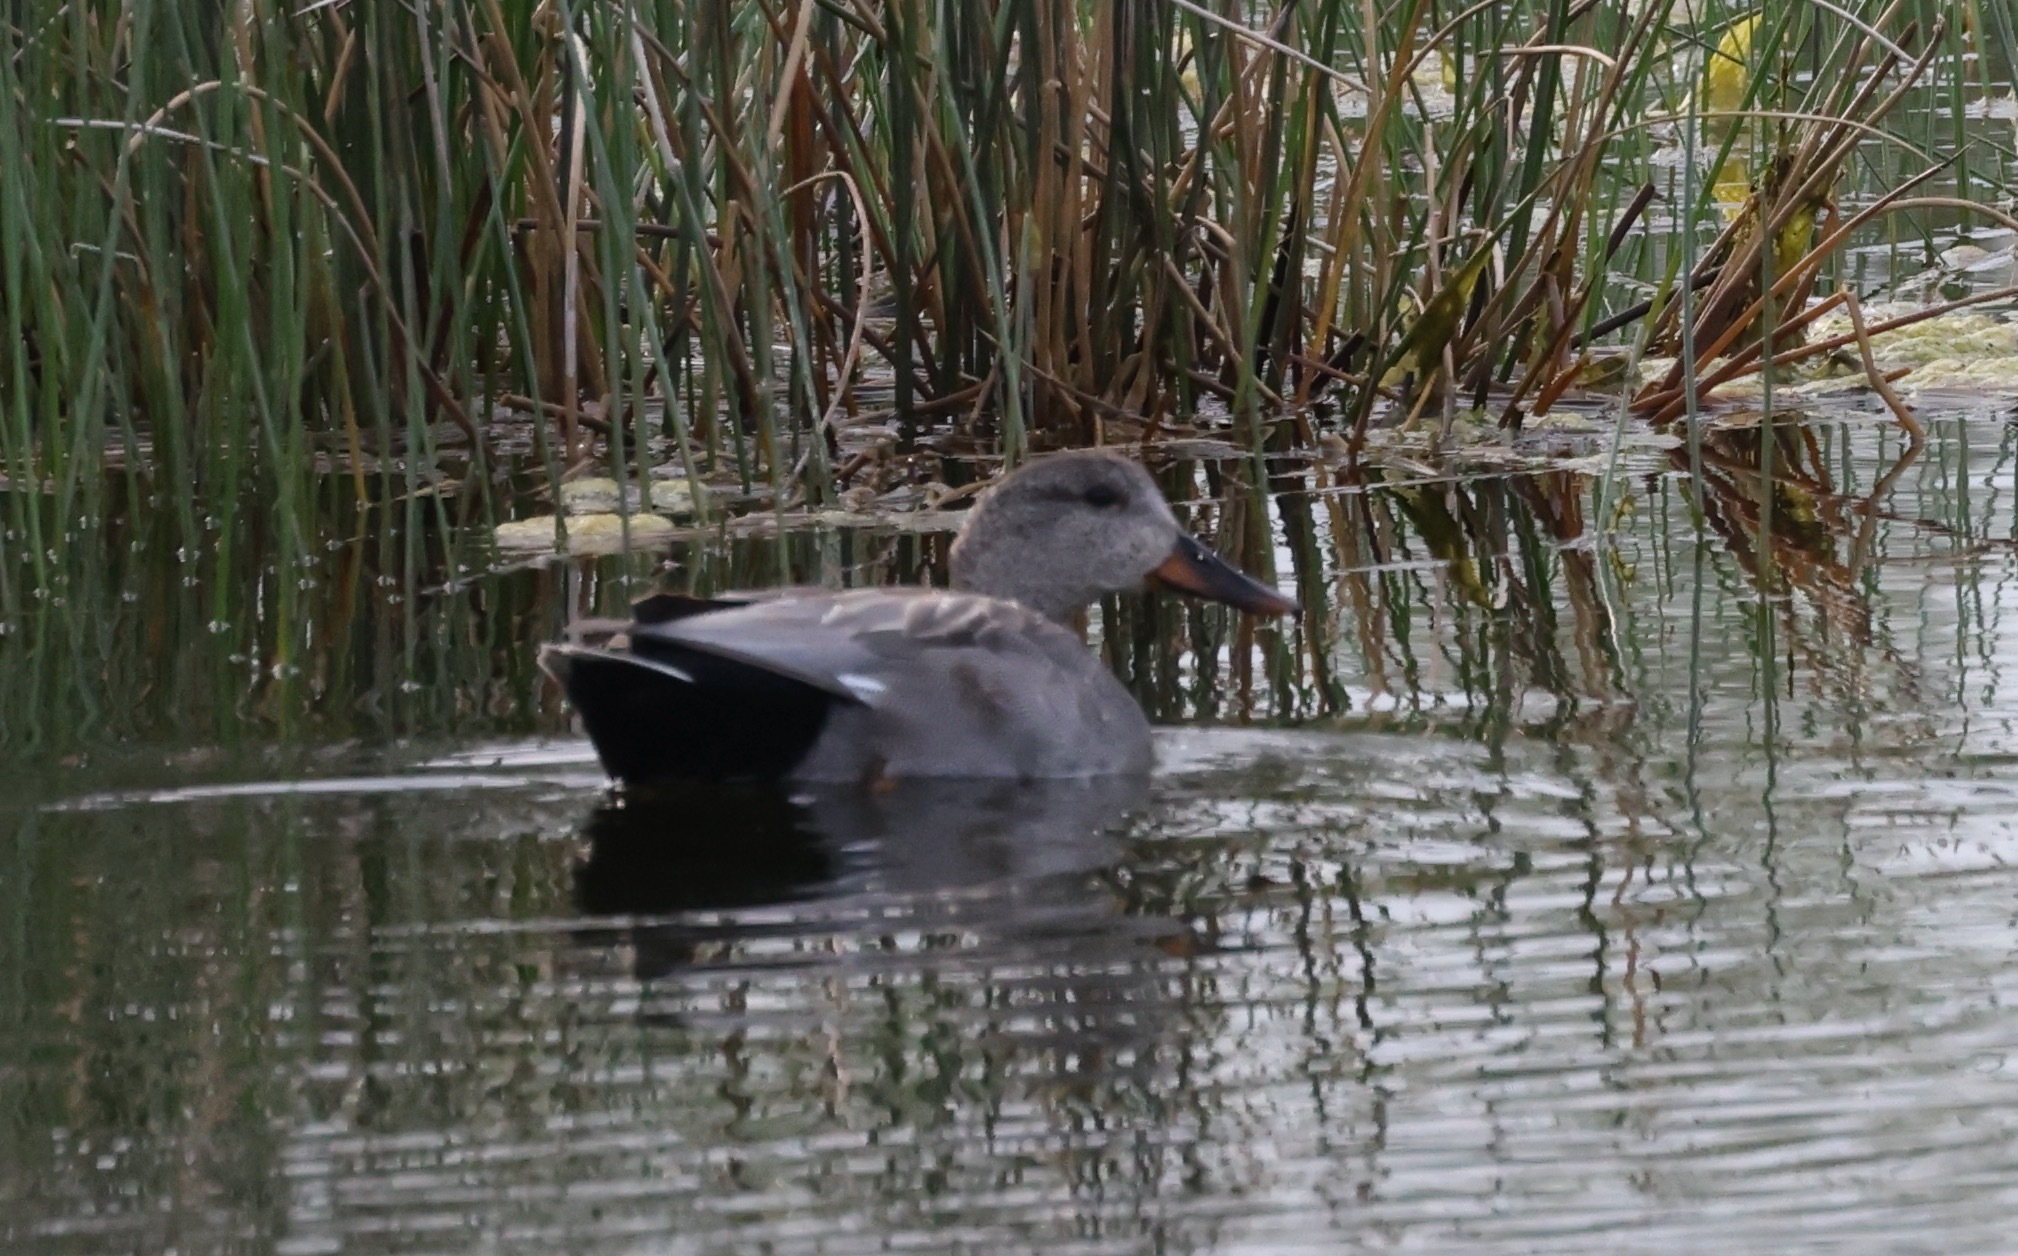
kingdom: Animalia
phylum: Chordata
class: Aves
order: Anseriformes
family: Anatidae
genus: Mareca
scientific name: Mareca strepera
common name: Gadwall
